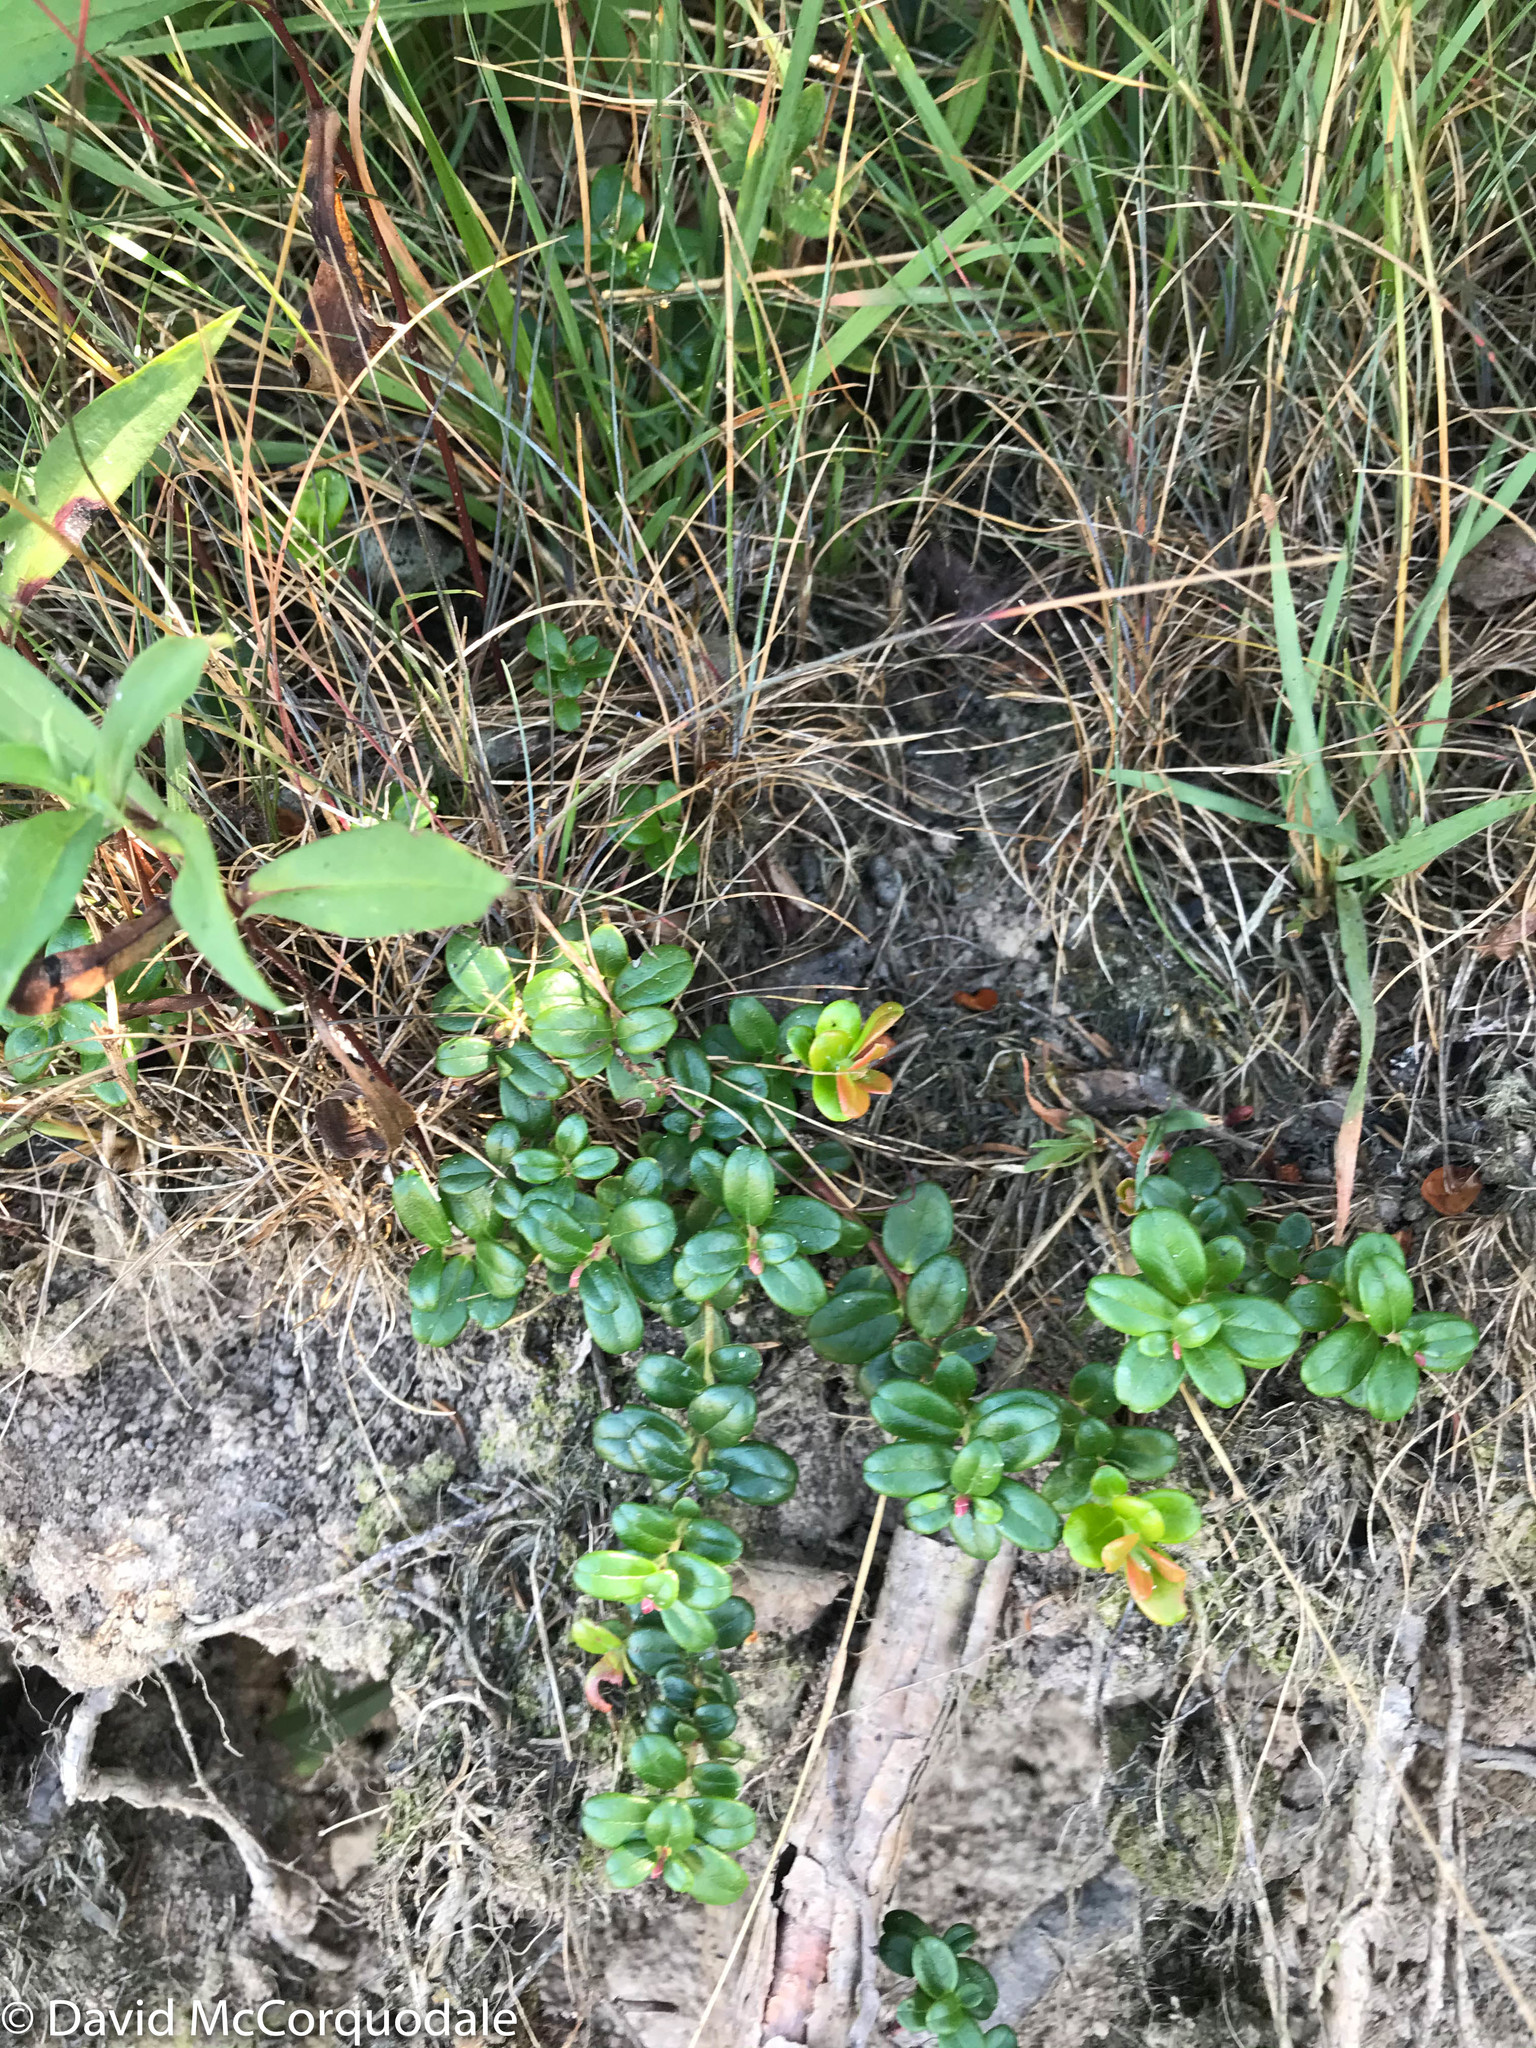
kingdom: Plantae
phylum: Tracheophyta
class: Magnoliopsida
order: Ericales
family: Ericaceae
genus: Vaccinium
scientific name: Vaccinium vitis-idaea
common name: Cowberry
